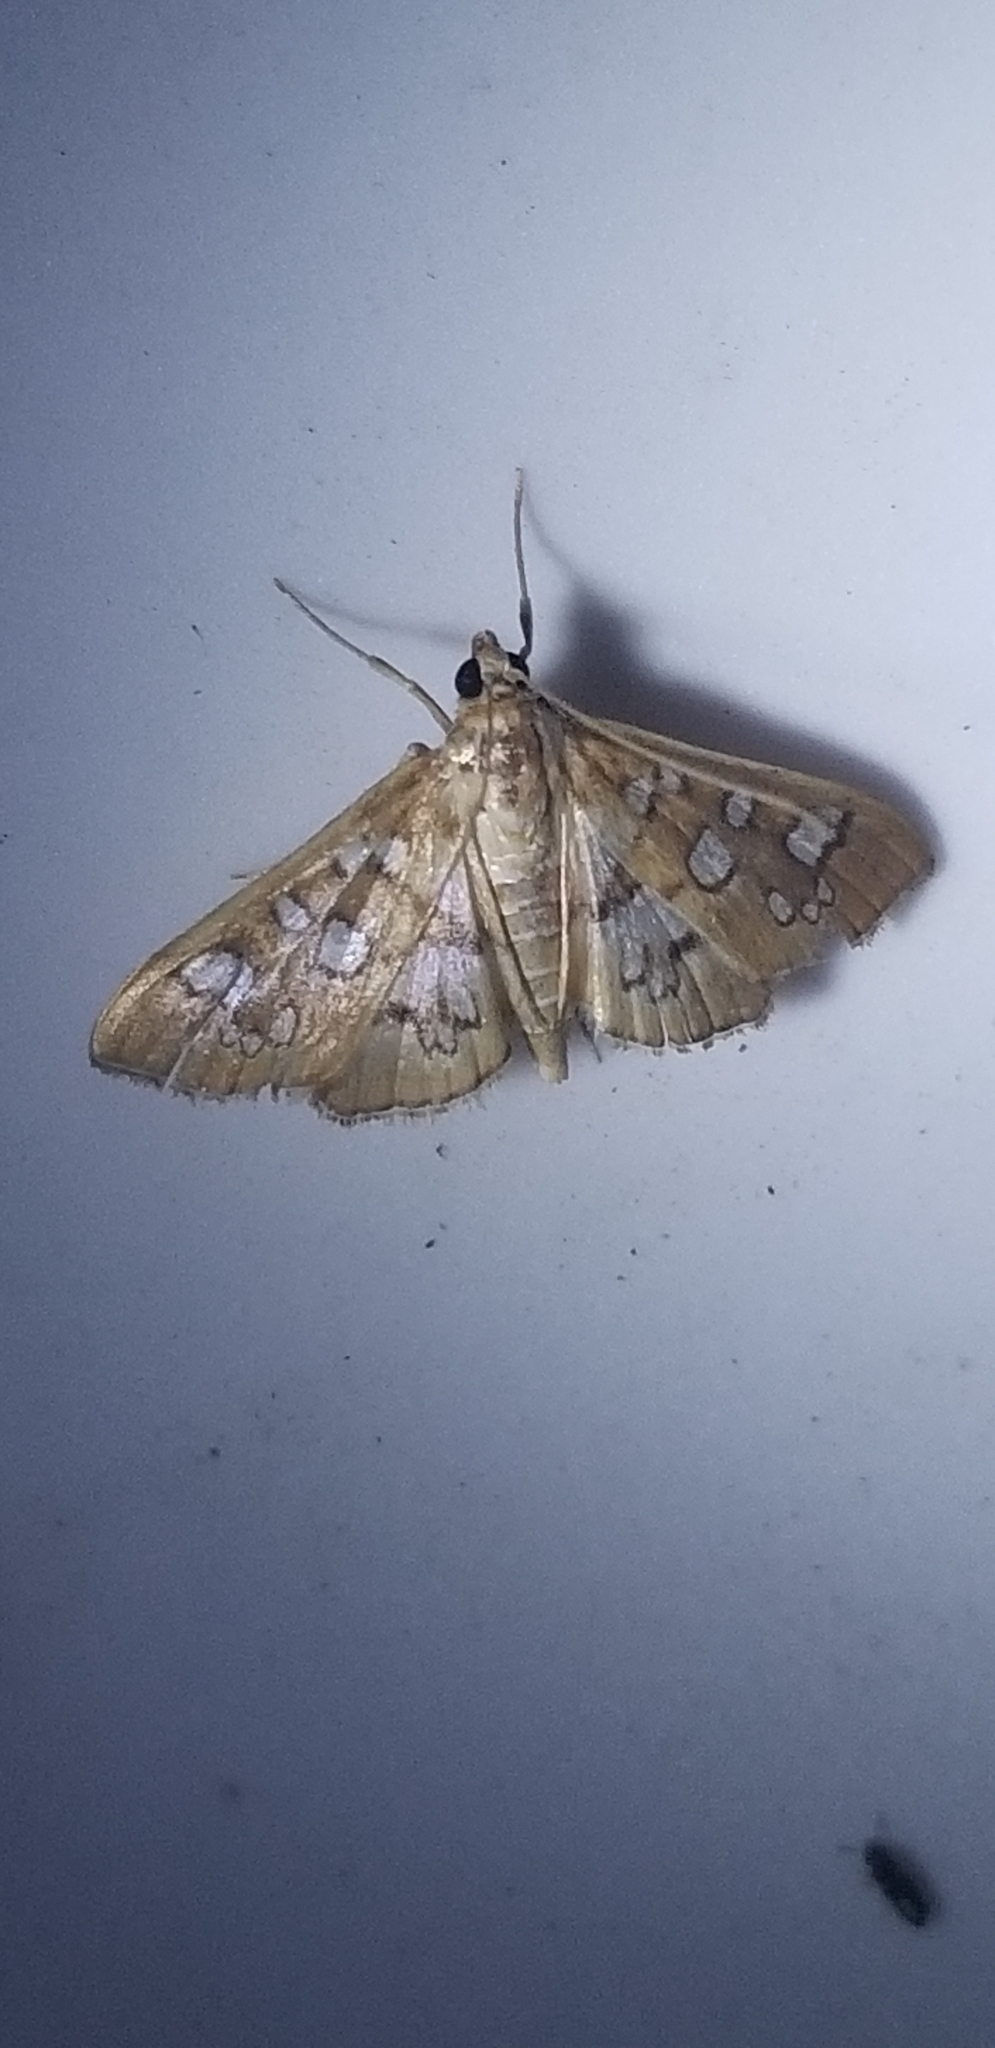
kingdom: Animalia
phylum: Arthropoda
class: Insecta
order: Lepidoptera
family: Crambidae
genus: Samea
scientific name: Samea baccatalis
